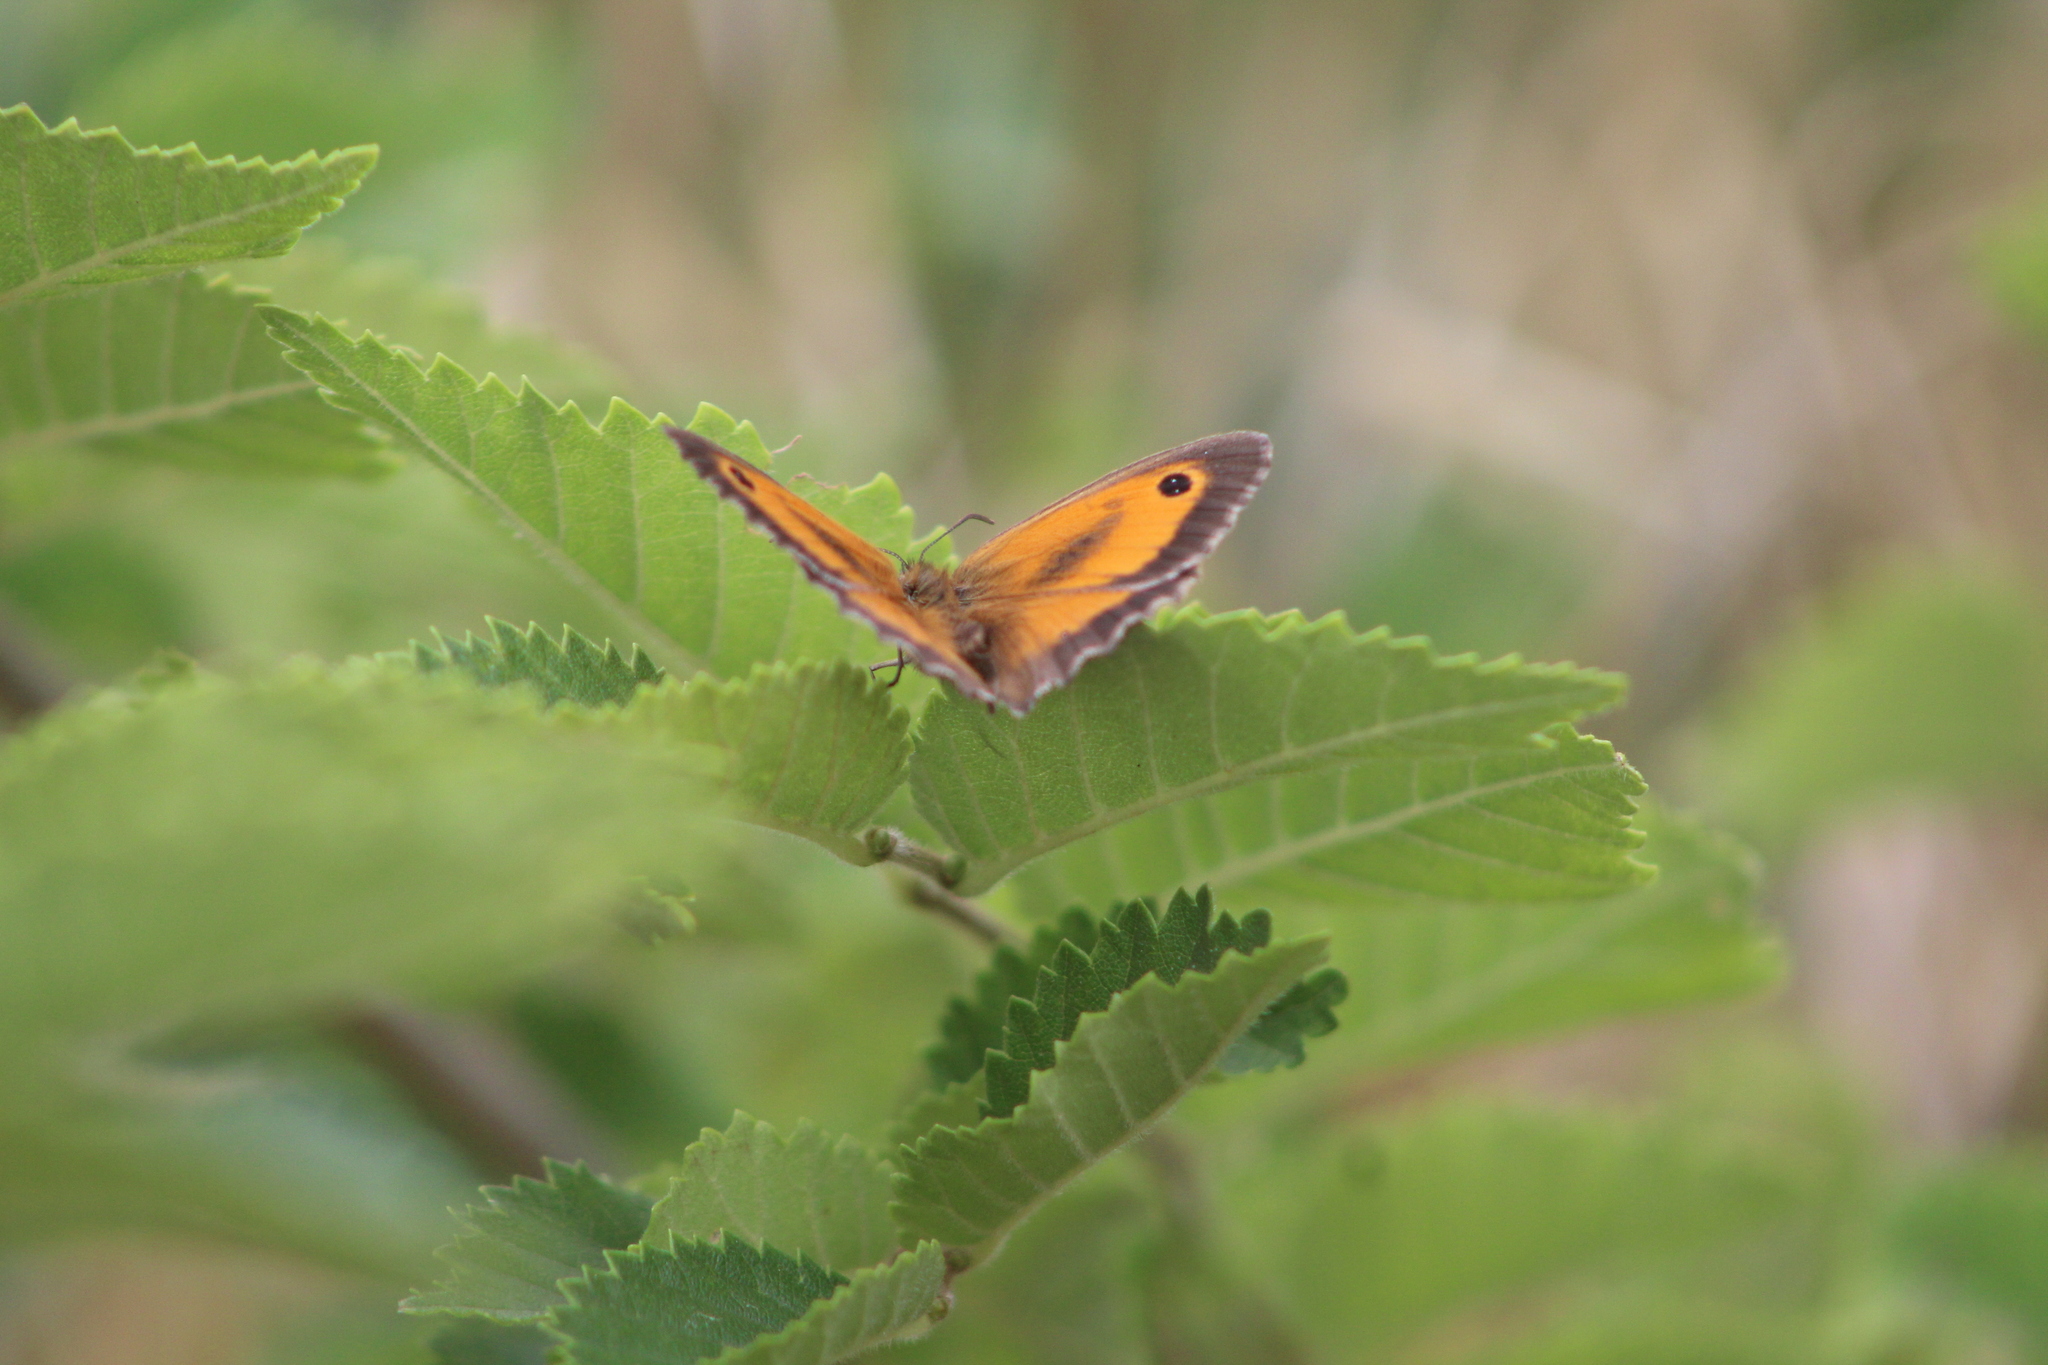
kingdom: Animalia
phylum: Arthropoda
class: Insecta
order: Lepidoptera
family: Nymphalidae
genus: Pyronia
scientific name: Pyronia tithonus
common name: Gatekeeper
